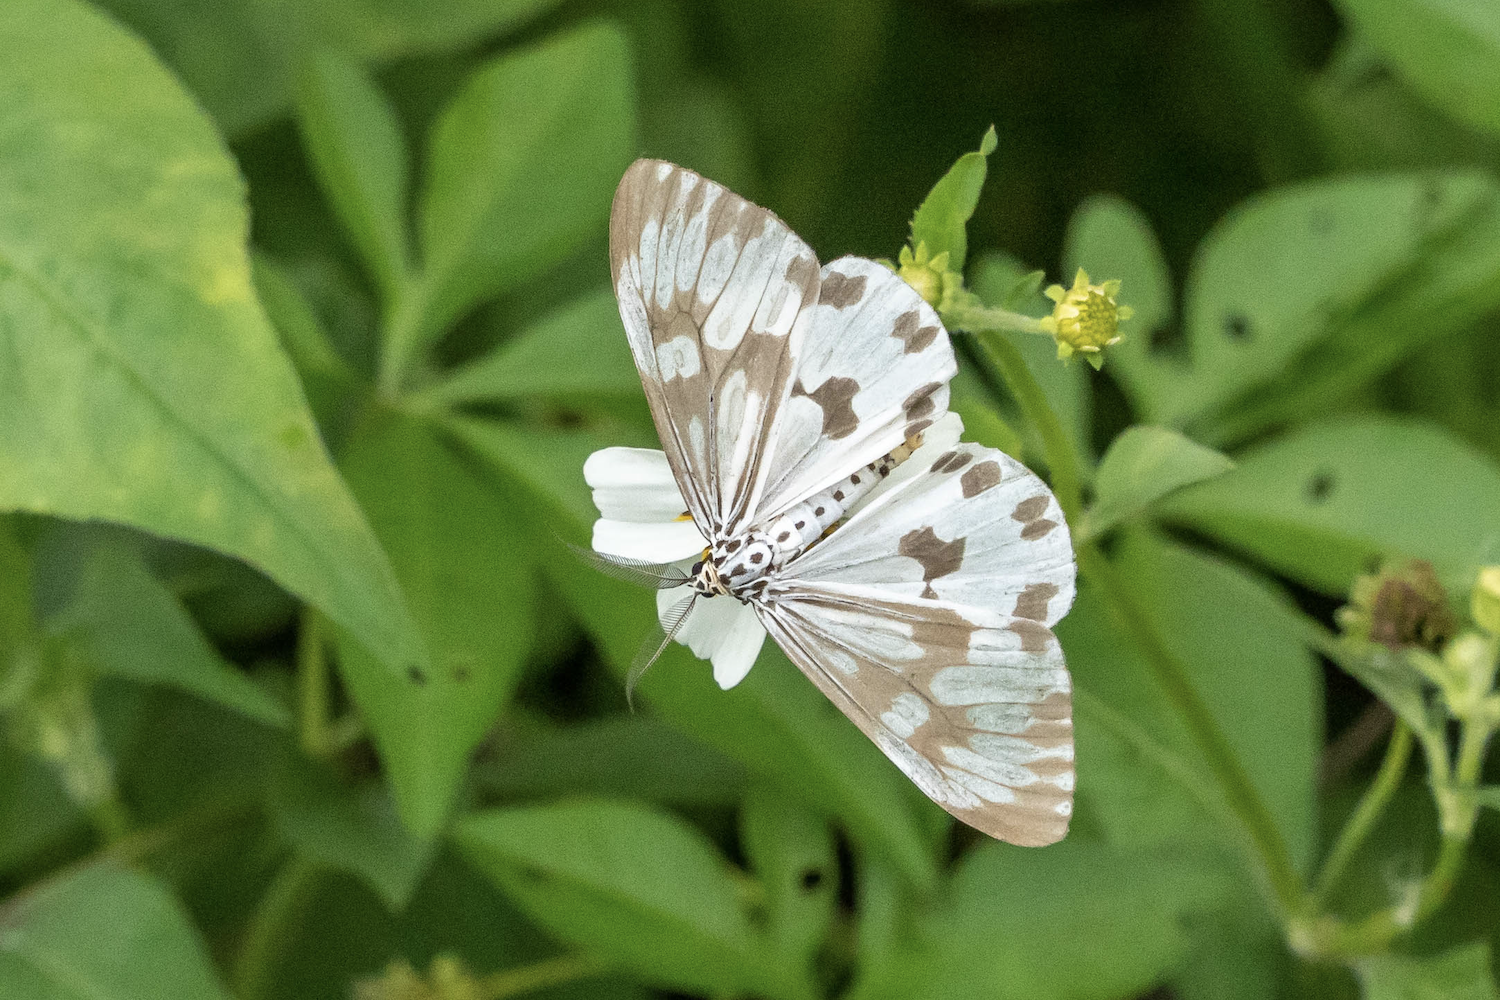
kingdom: Animalia
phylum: Arthropoda
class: Insecta
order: Lepidoptera
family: Erebidae
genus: Nyctemera
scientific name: Nyctemera adversata
